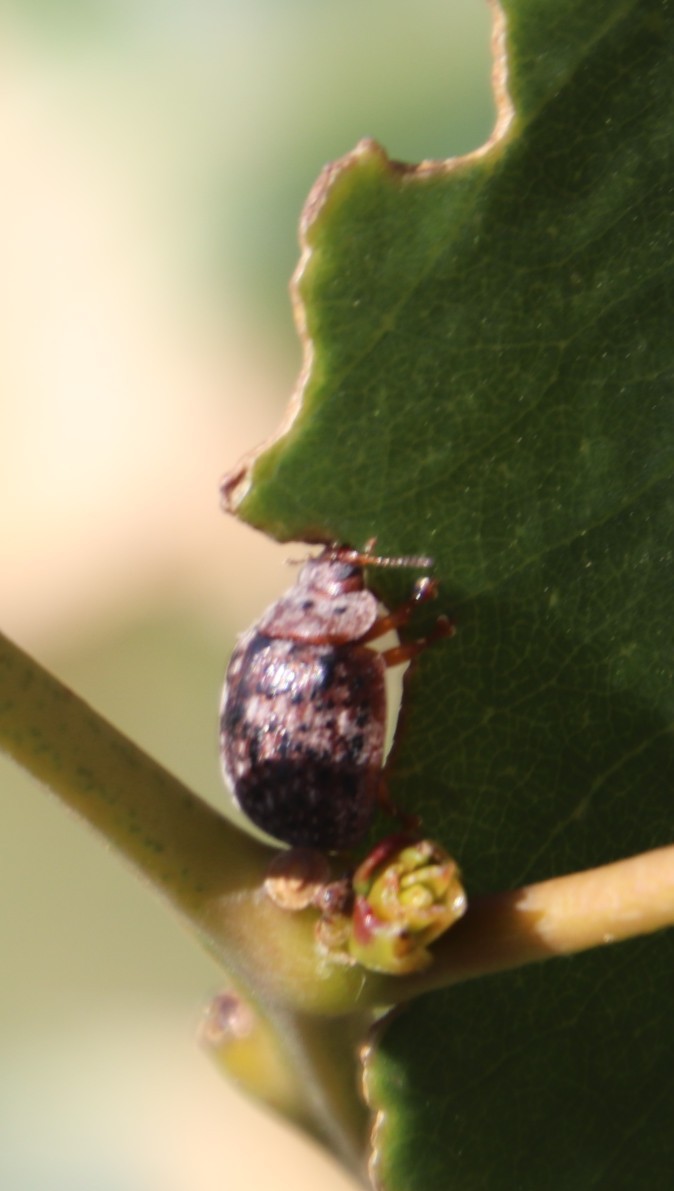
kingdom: Animalia
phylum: Arthropoda
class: Insecta
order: Coleoptera
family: Chrysomelidae
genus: Trachymela
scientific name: Trachymela
